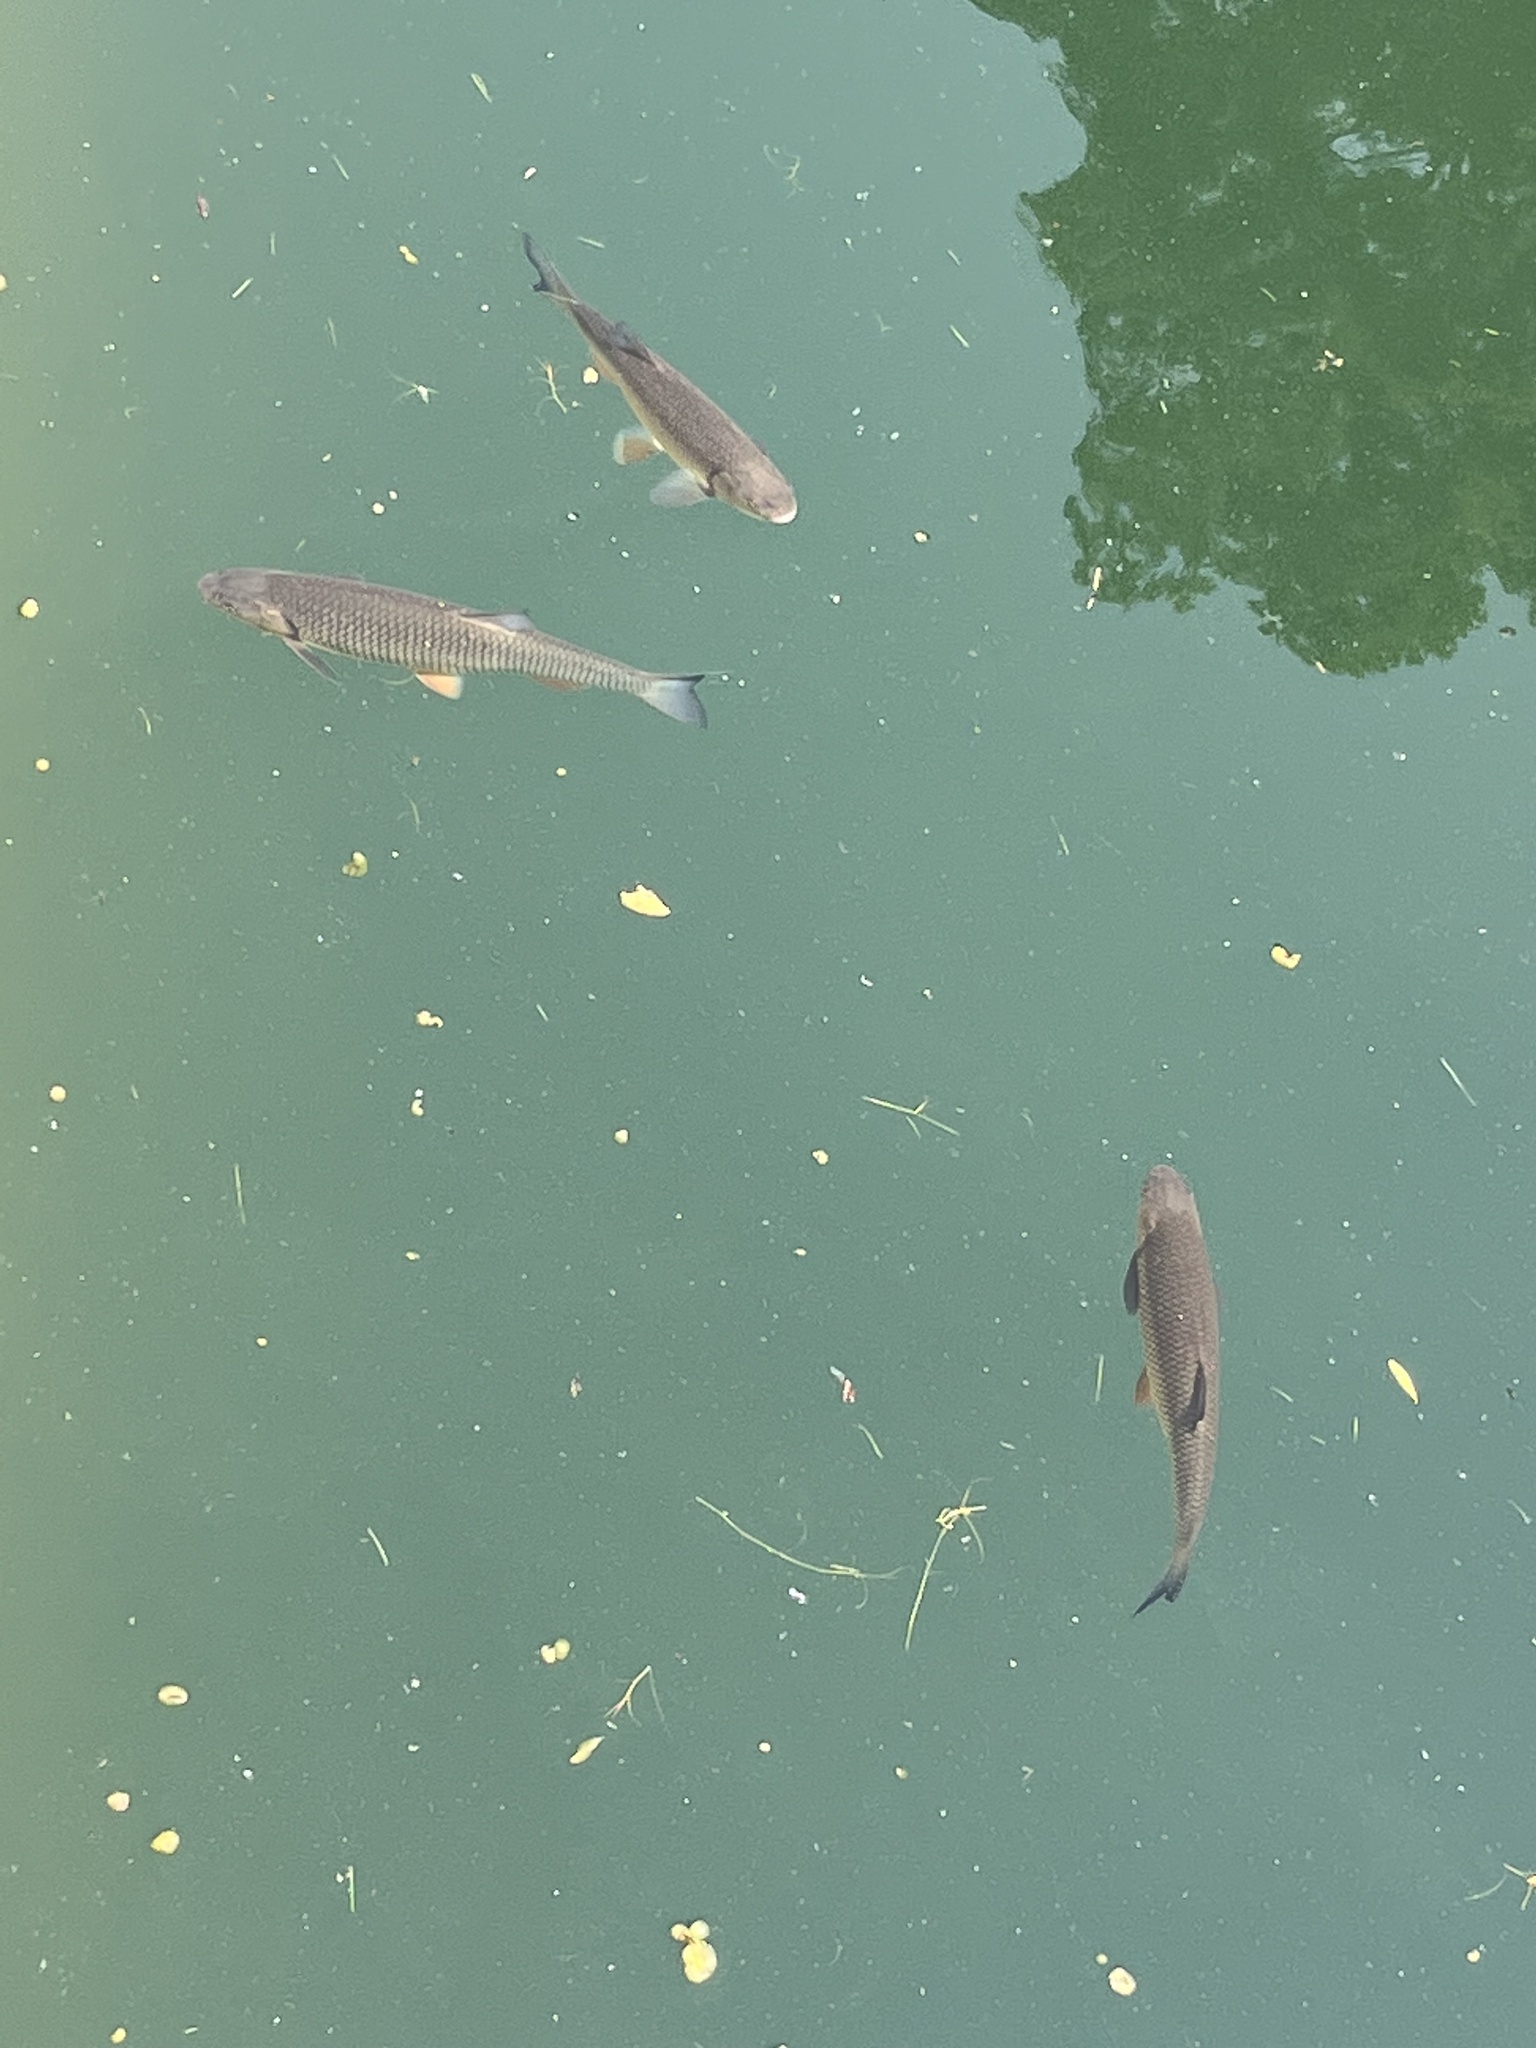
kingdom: Animalia
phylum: Chordata
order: Cypriniformes
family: Cyprinidae
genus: Squalius
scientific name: Squalius cephalus
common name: Chub
